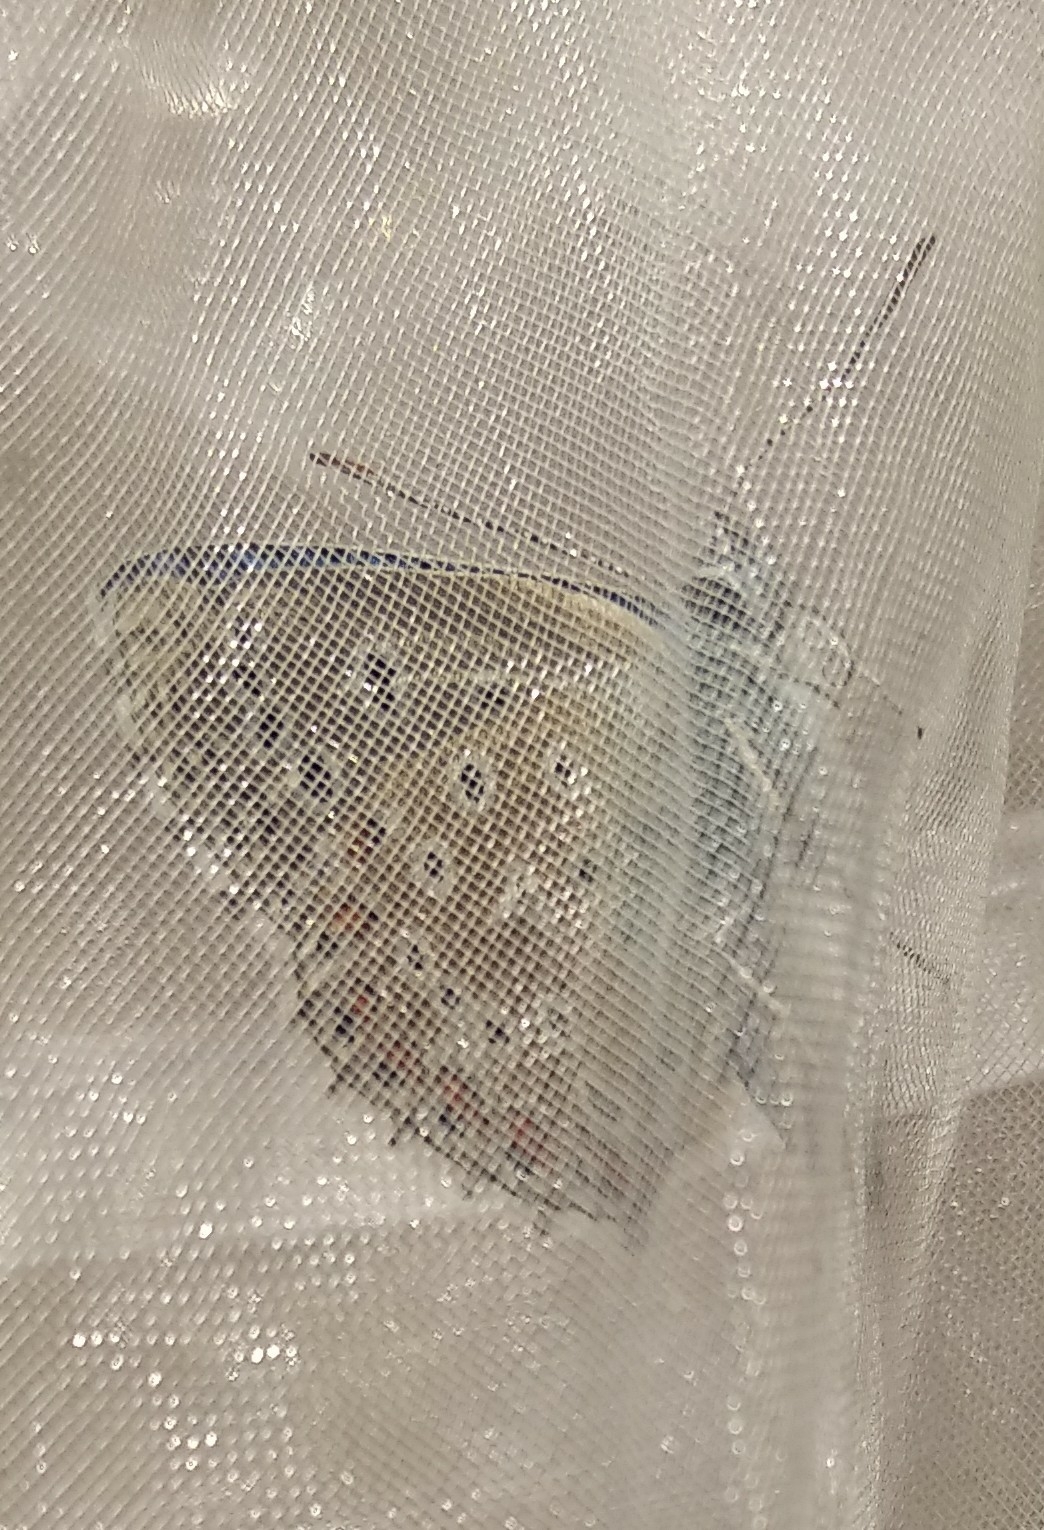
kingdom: Animalia
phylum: Arthropoda
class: Insecta
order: Lepidoptera
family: Lycaenidae
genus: Lysandra
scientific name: Lysandra bellargus
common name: Adonis blue
